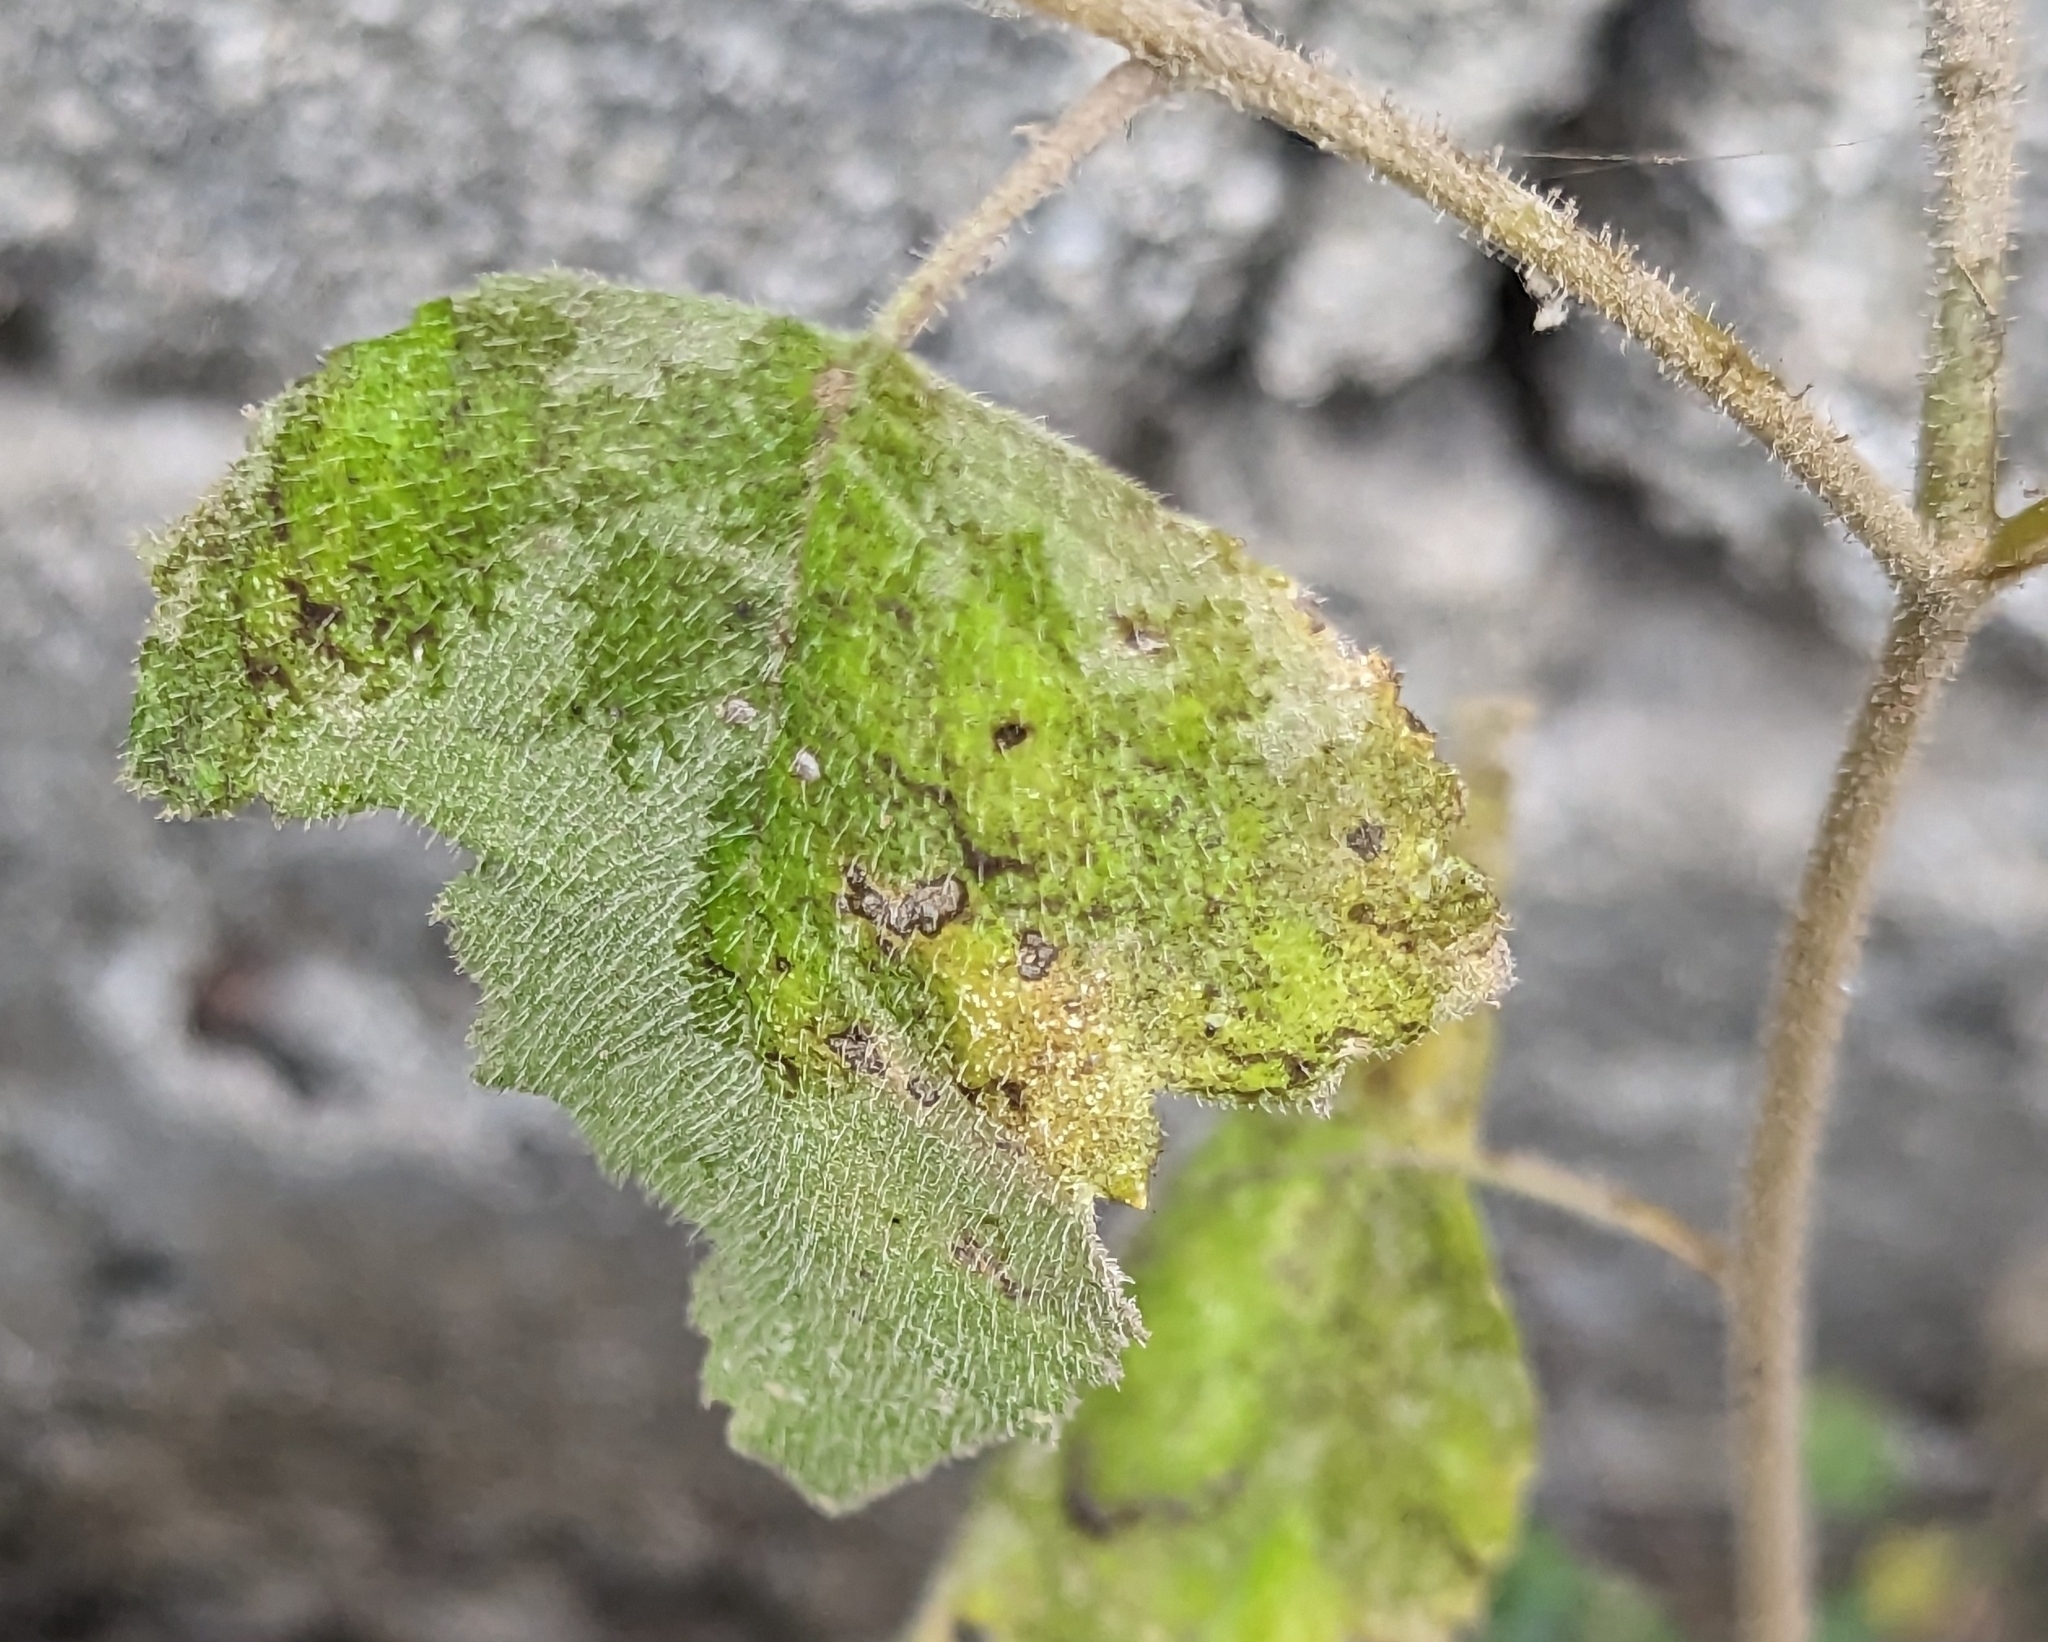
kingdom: Plantae
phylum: Tracheophyta
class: Magnoliopsida
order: Cornales
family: Loasaceae
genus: Mentzelia
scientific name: Mentzelia aspera
